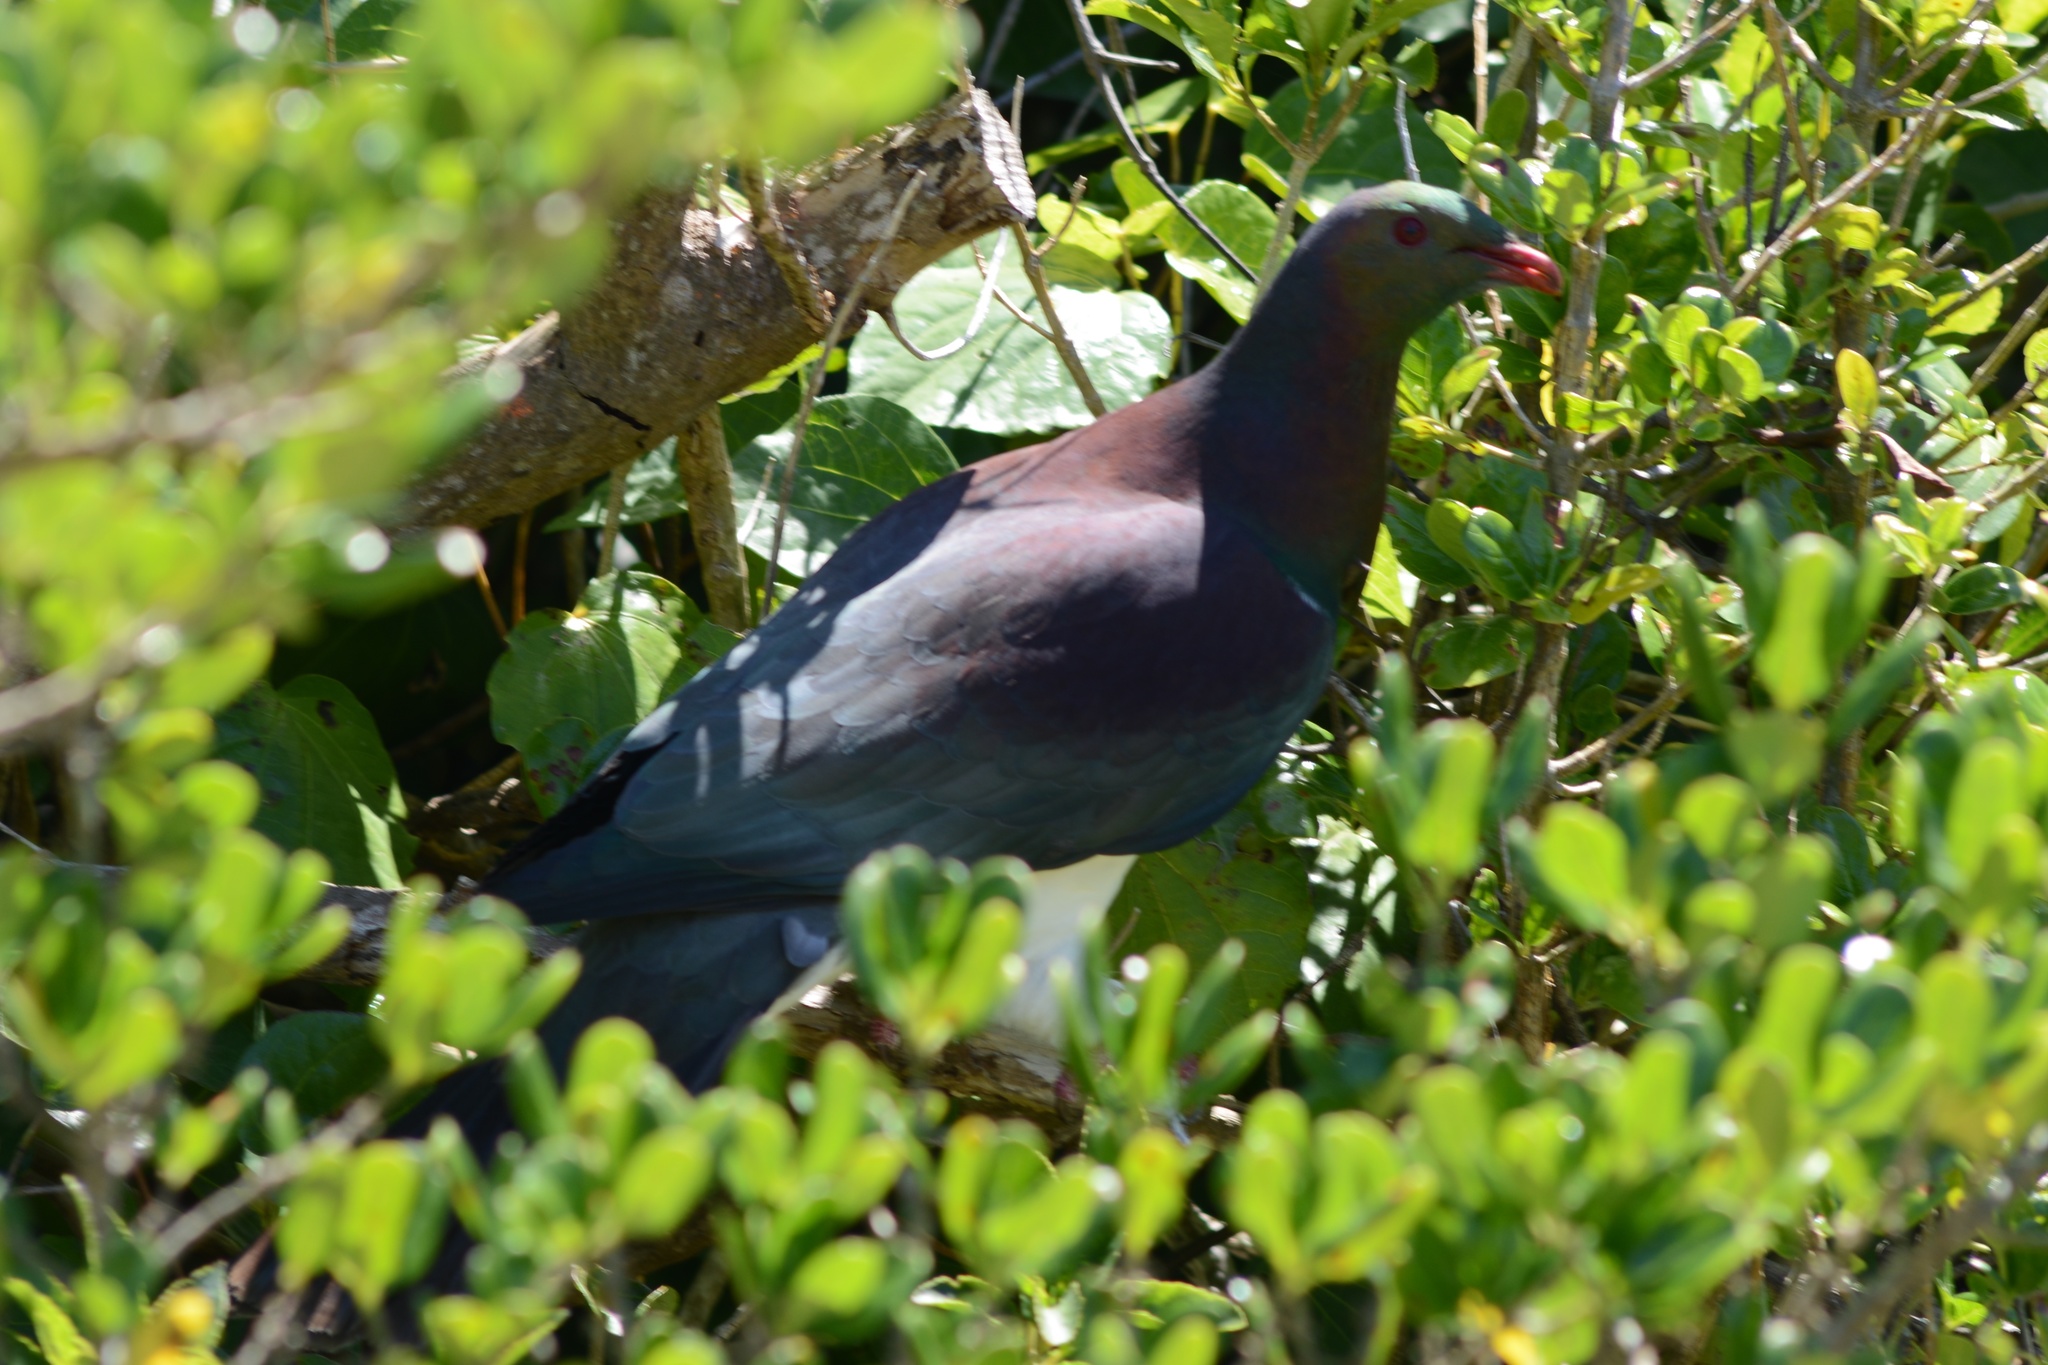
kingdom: Animalia
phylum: Chordata
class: Aves
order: Columbiformes
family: Columbidae
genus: Hemiphaga
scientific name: Hemiphaga novaeseelandiae
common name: New zealand pigeon
